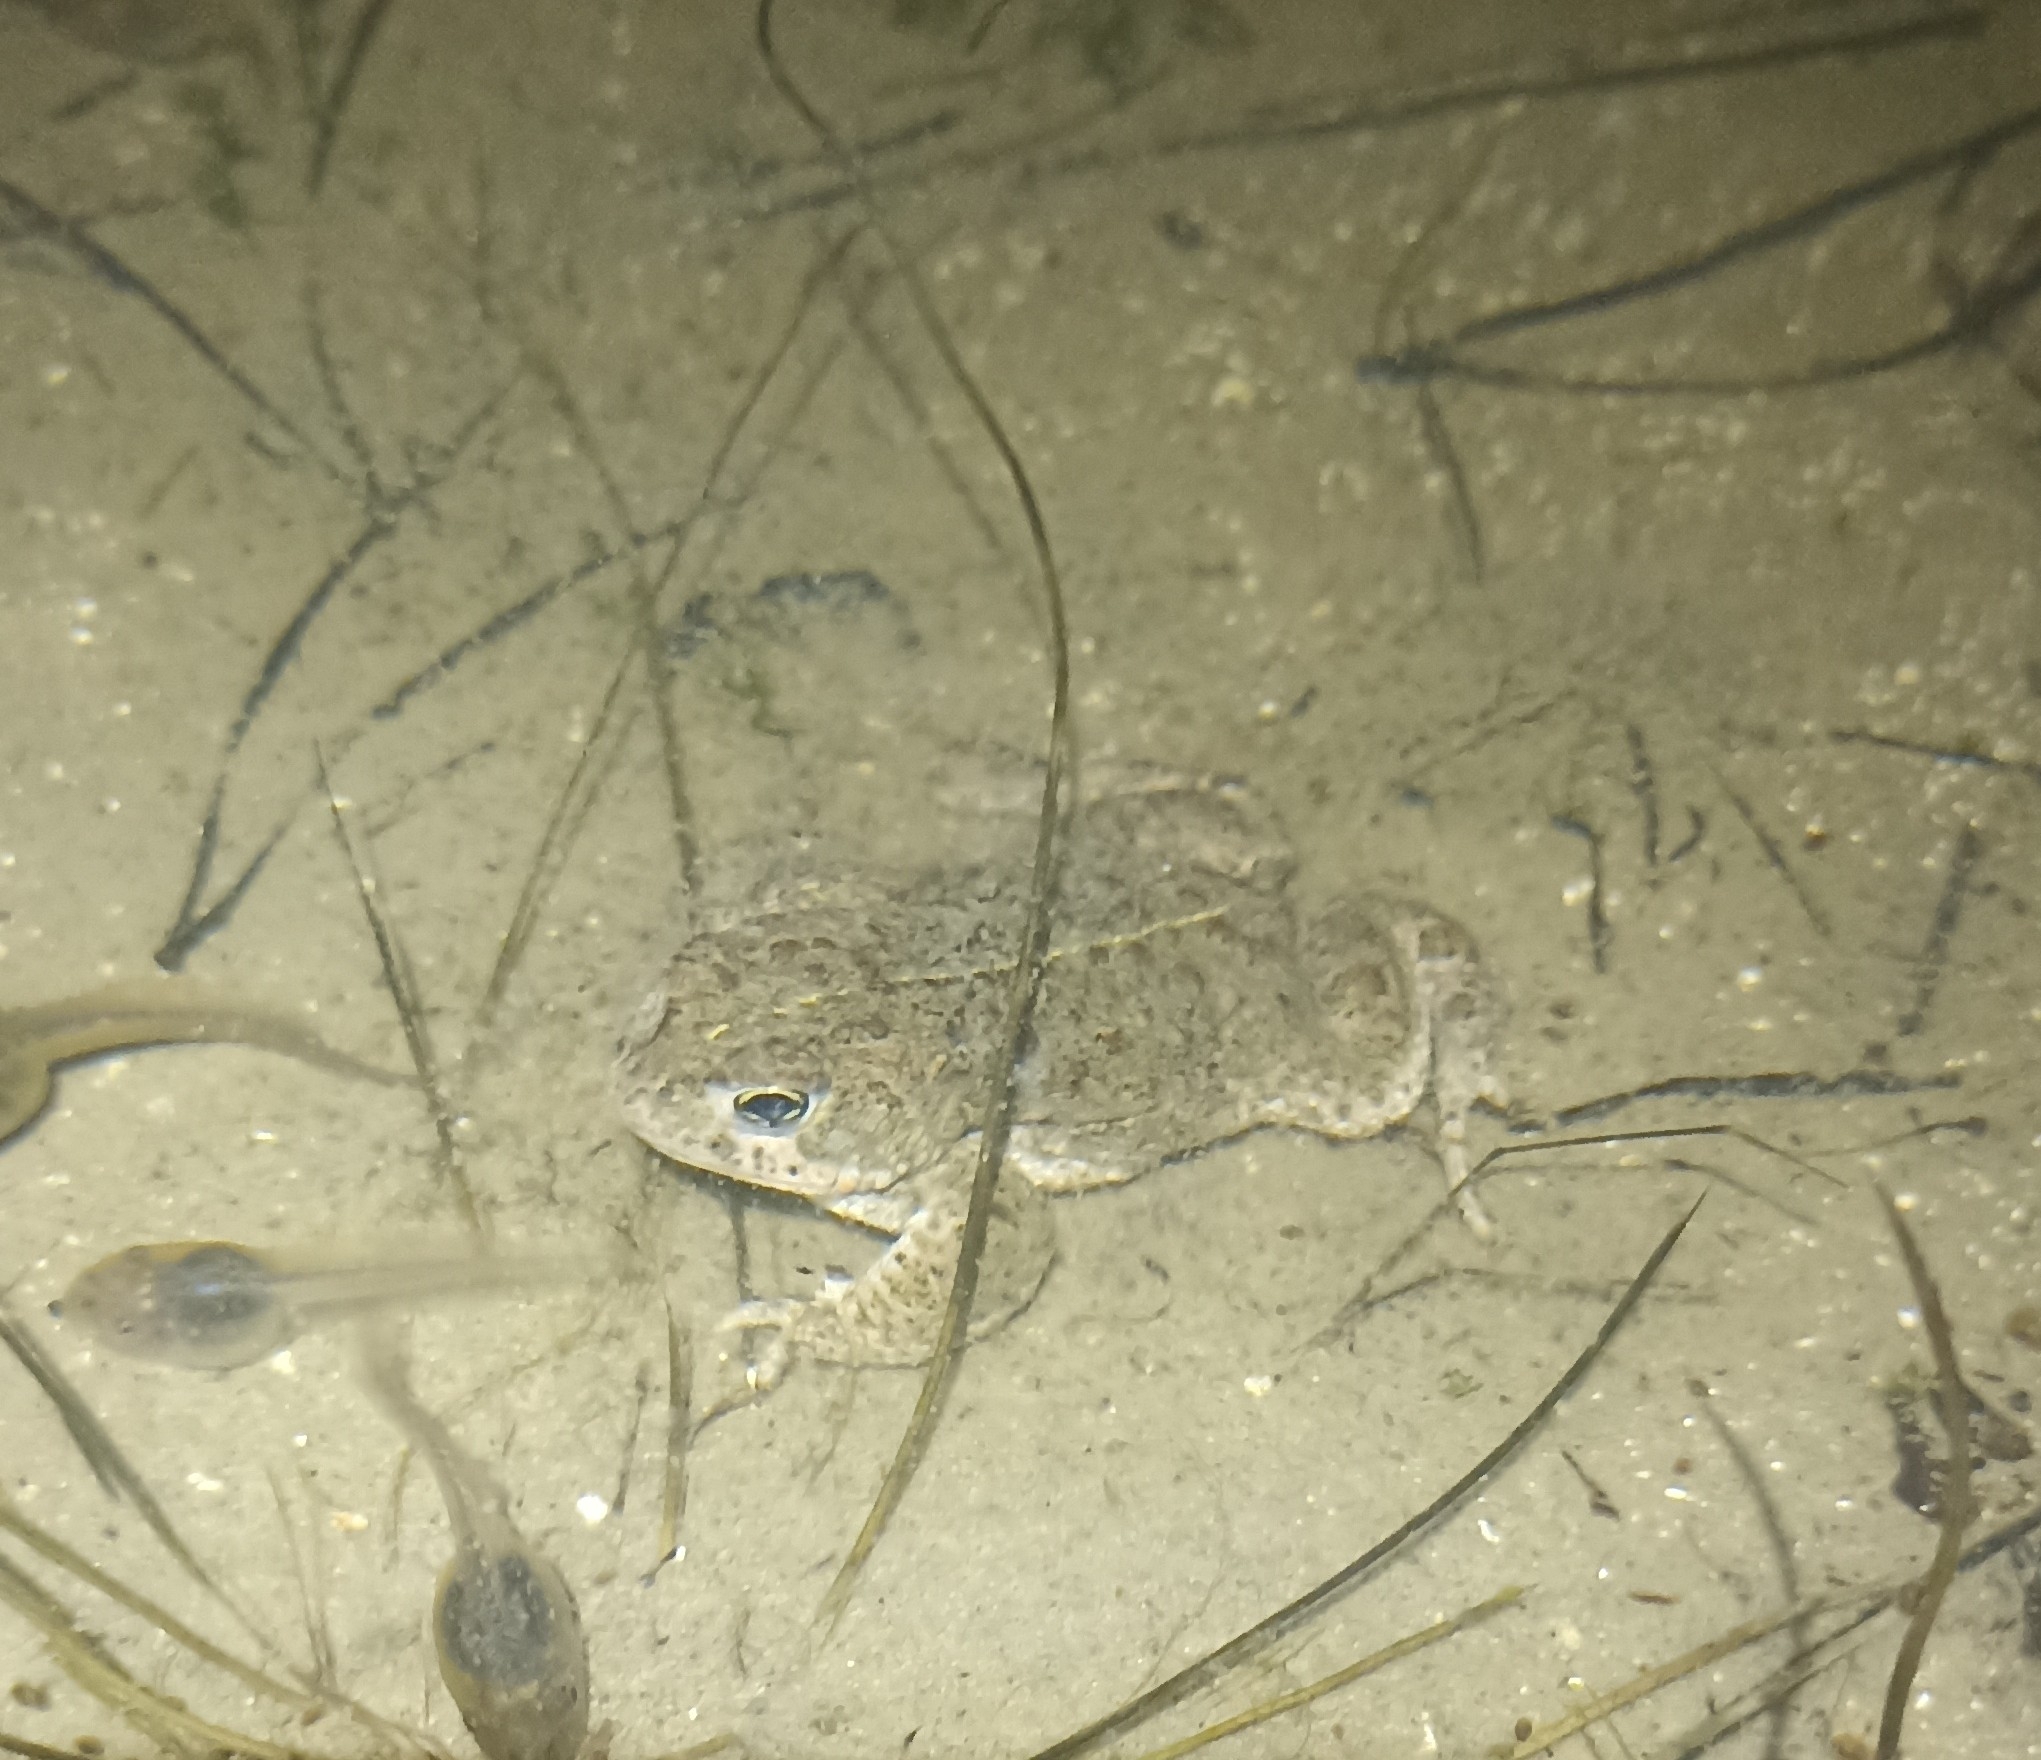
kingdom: Animalia
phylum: Chordata
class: Amphibia
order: Anura
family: Bufonidae
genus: Epidalea
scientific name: Epidalea calamita
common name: Natterjack toad
